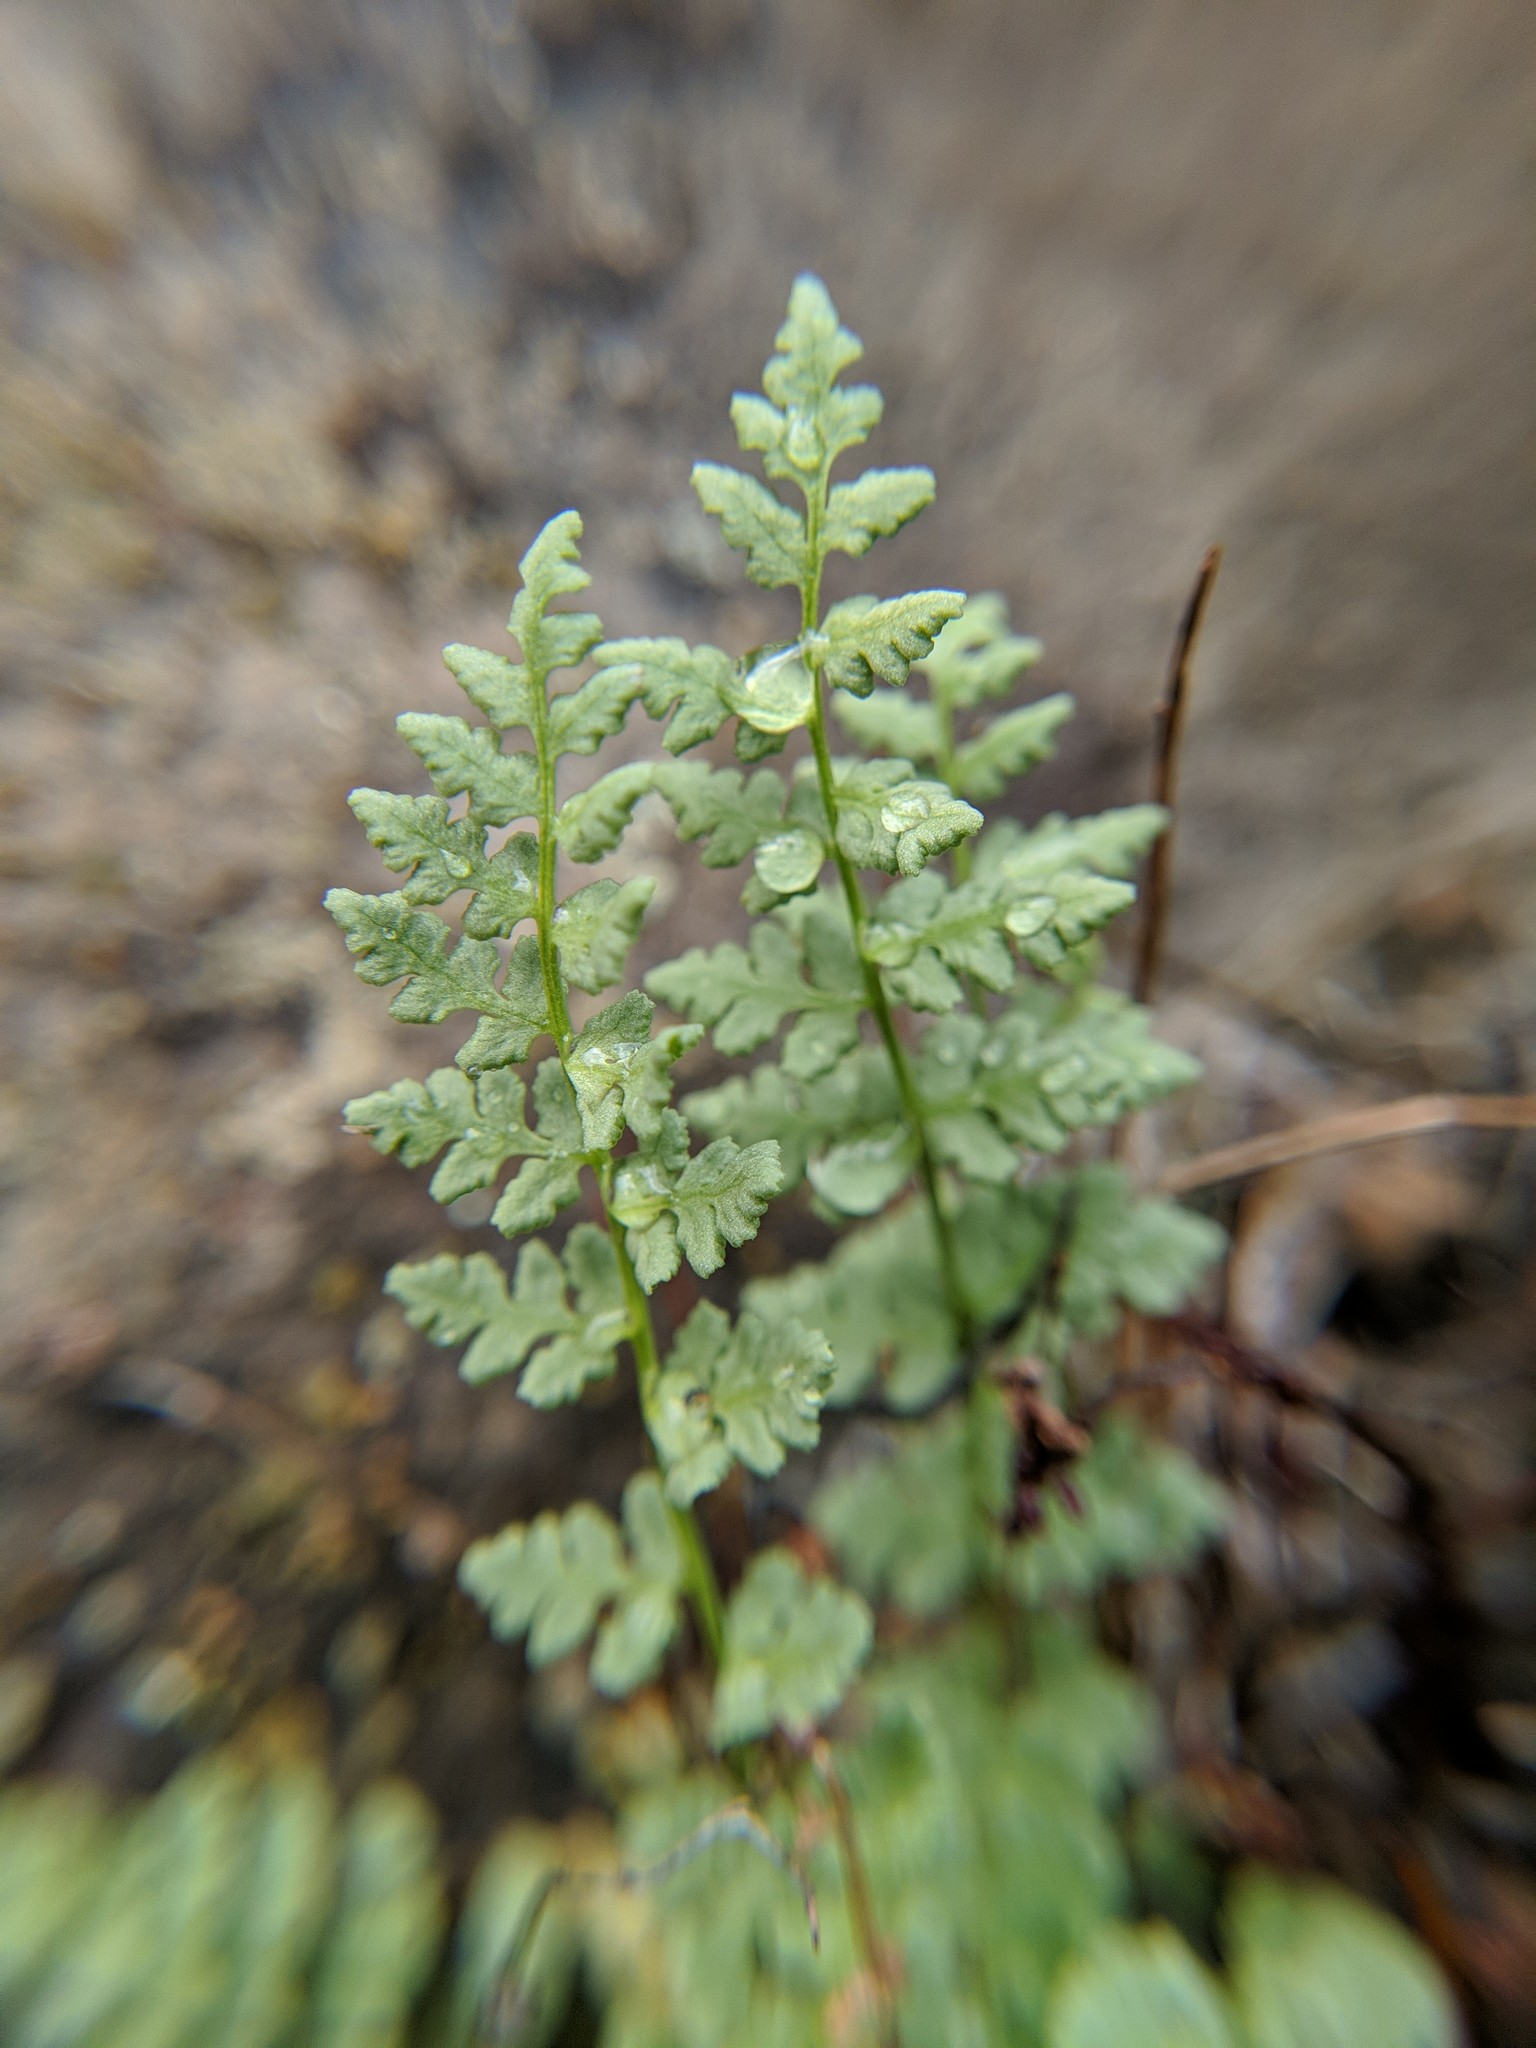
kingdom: Plantae
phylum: Tracheophyta
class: Polypodiopsida
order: Polypodiales
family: Woodsiaceae
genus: Physematium
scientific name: Physematium oreganum
